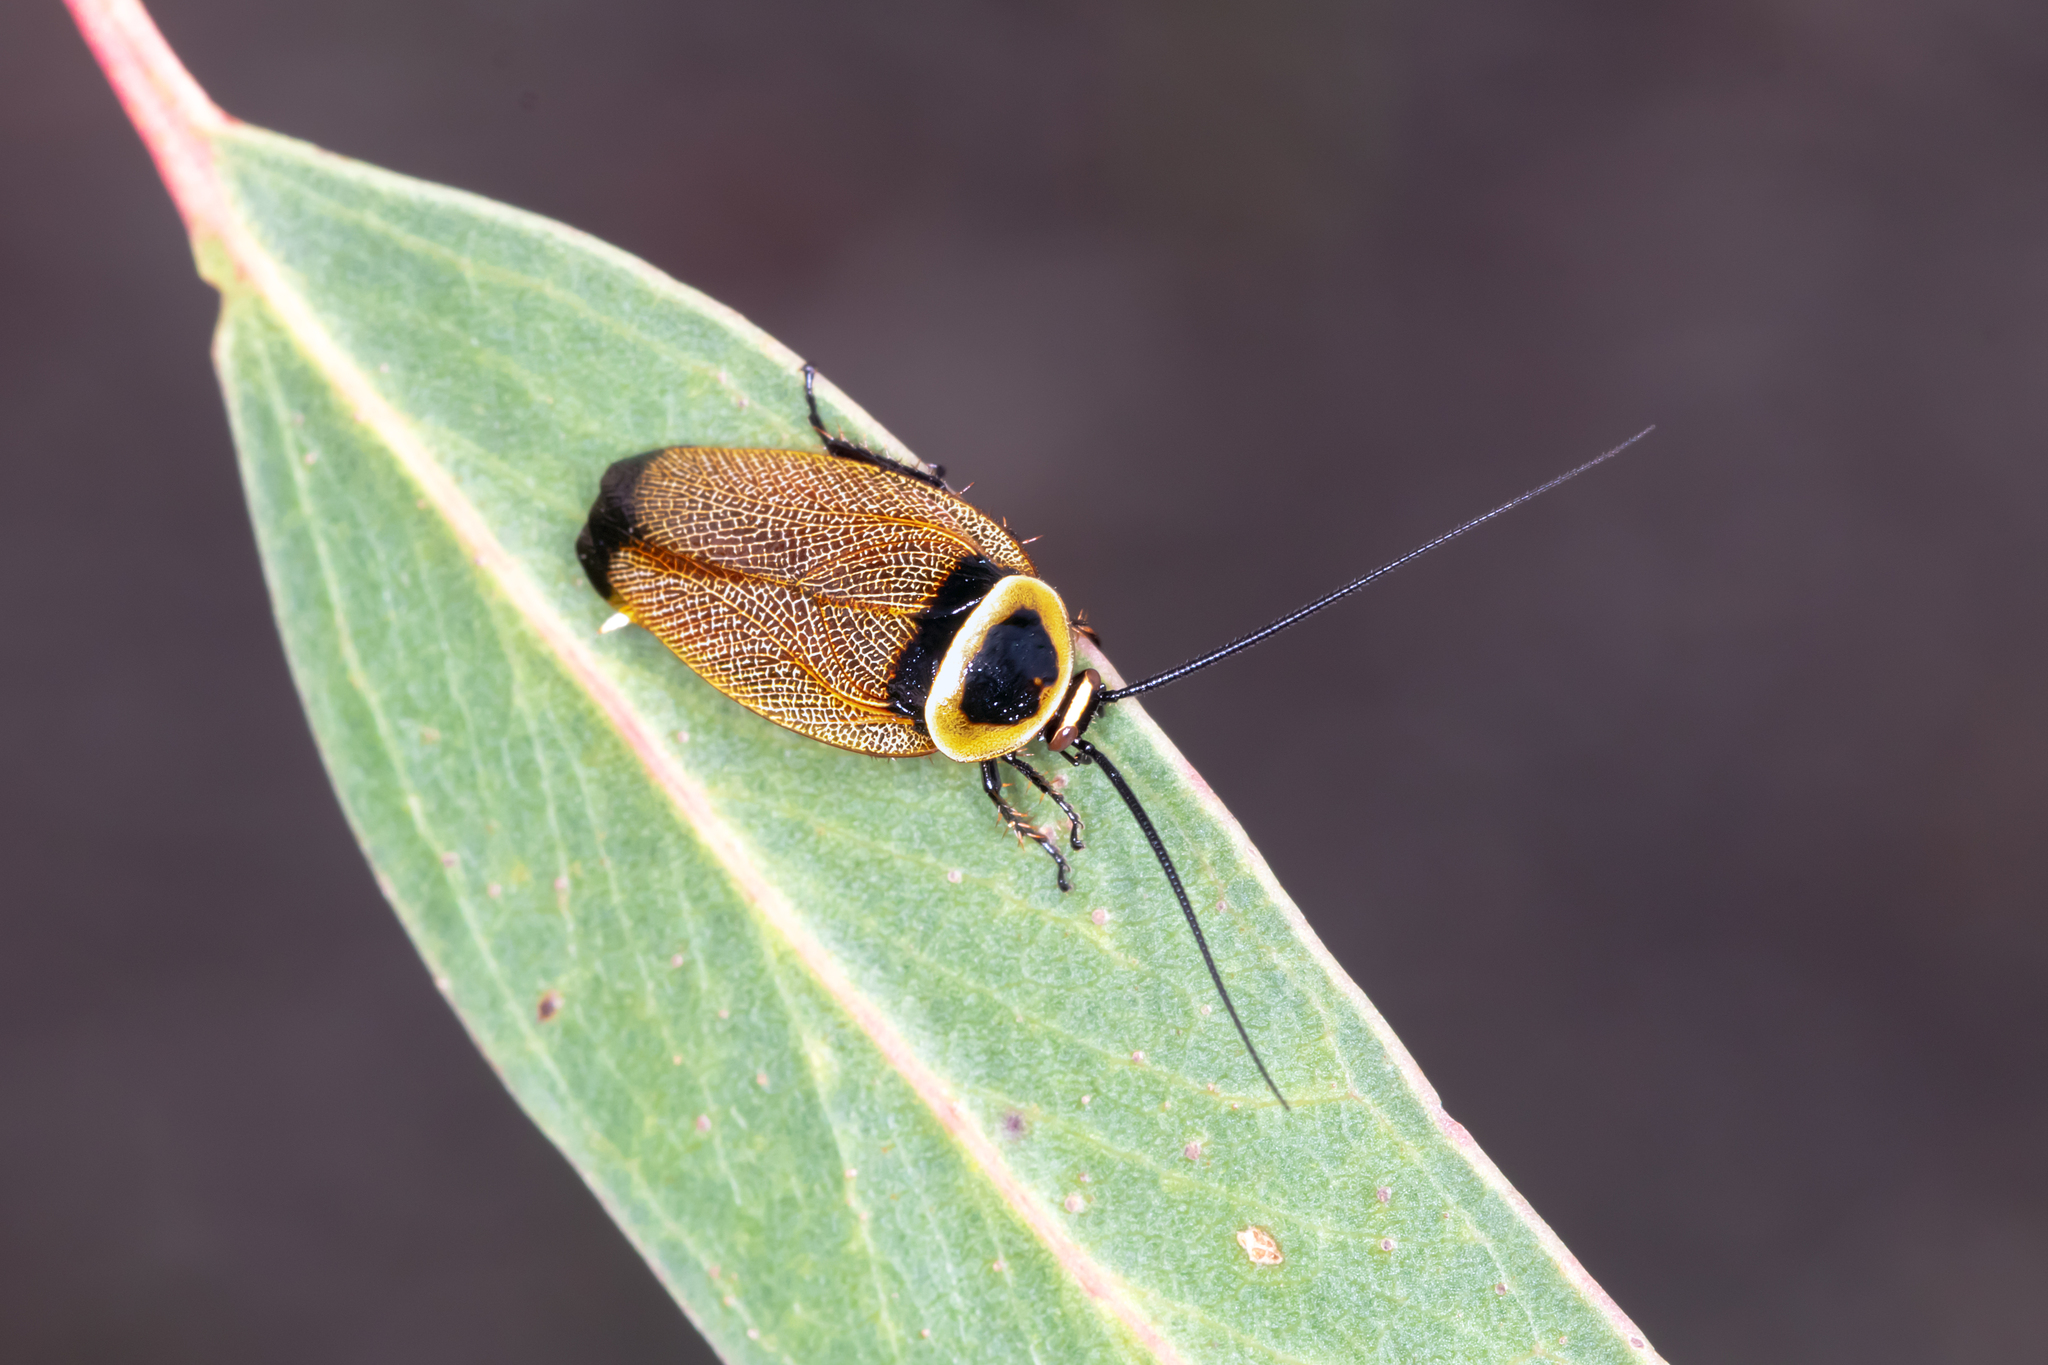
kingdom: Animalia
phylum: Arthropoda
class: Insecta
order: Blattodea
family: Ectobiidae
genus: Ellipsidion
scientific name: Ellipsidion australe
